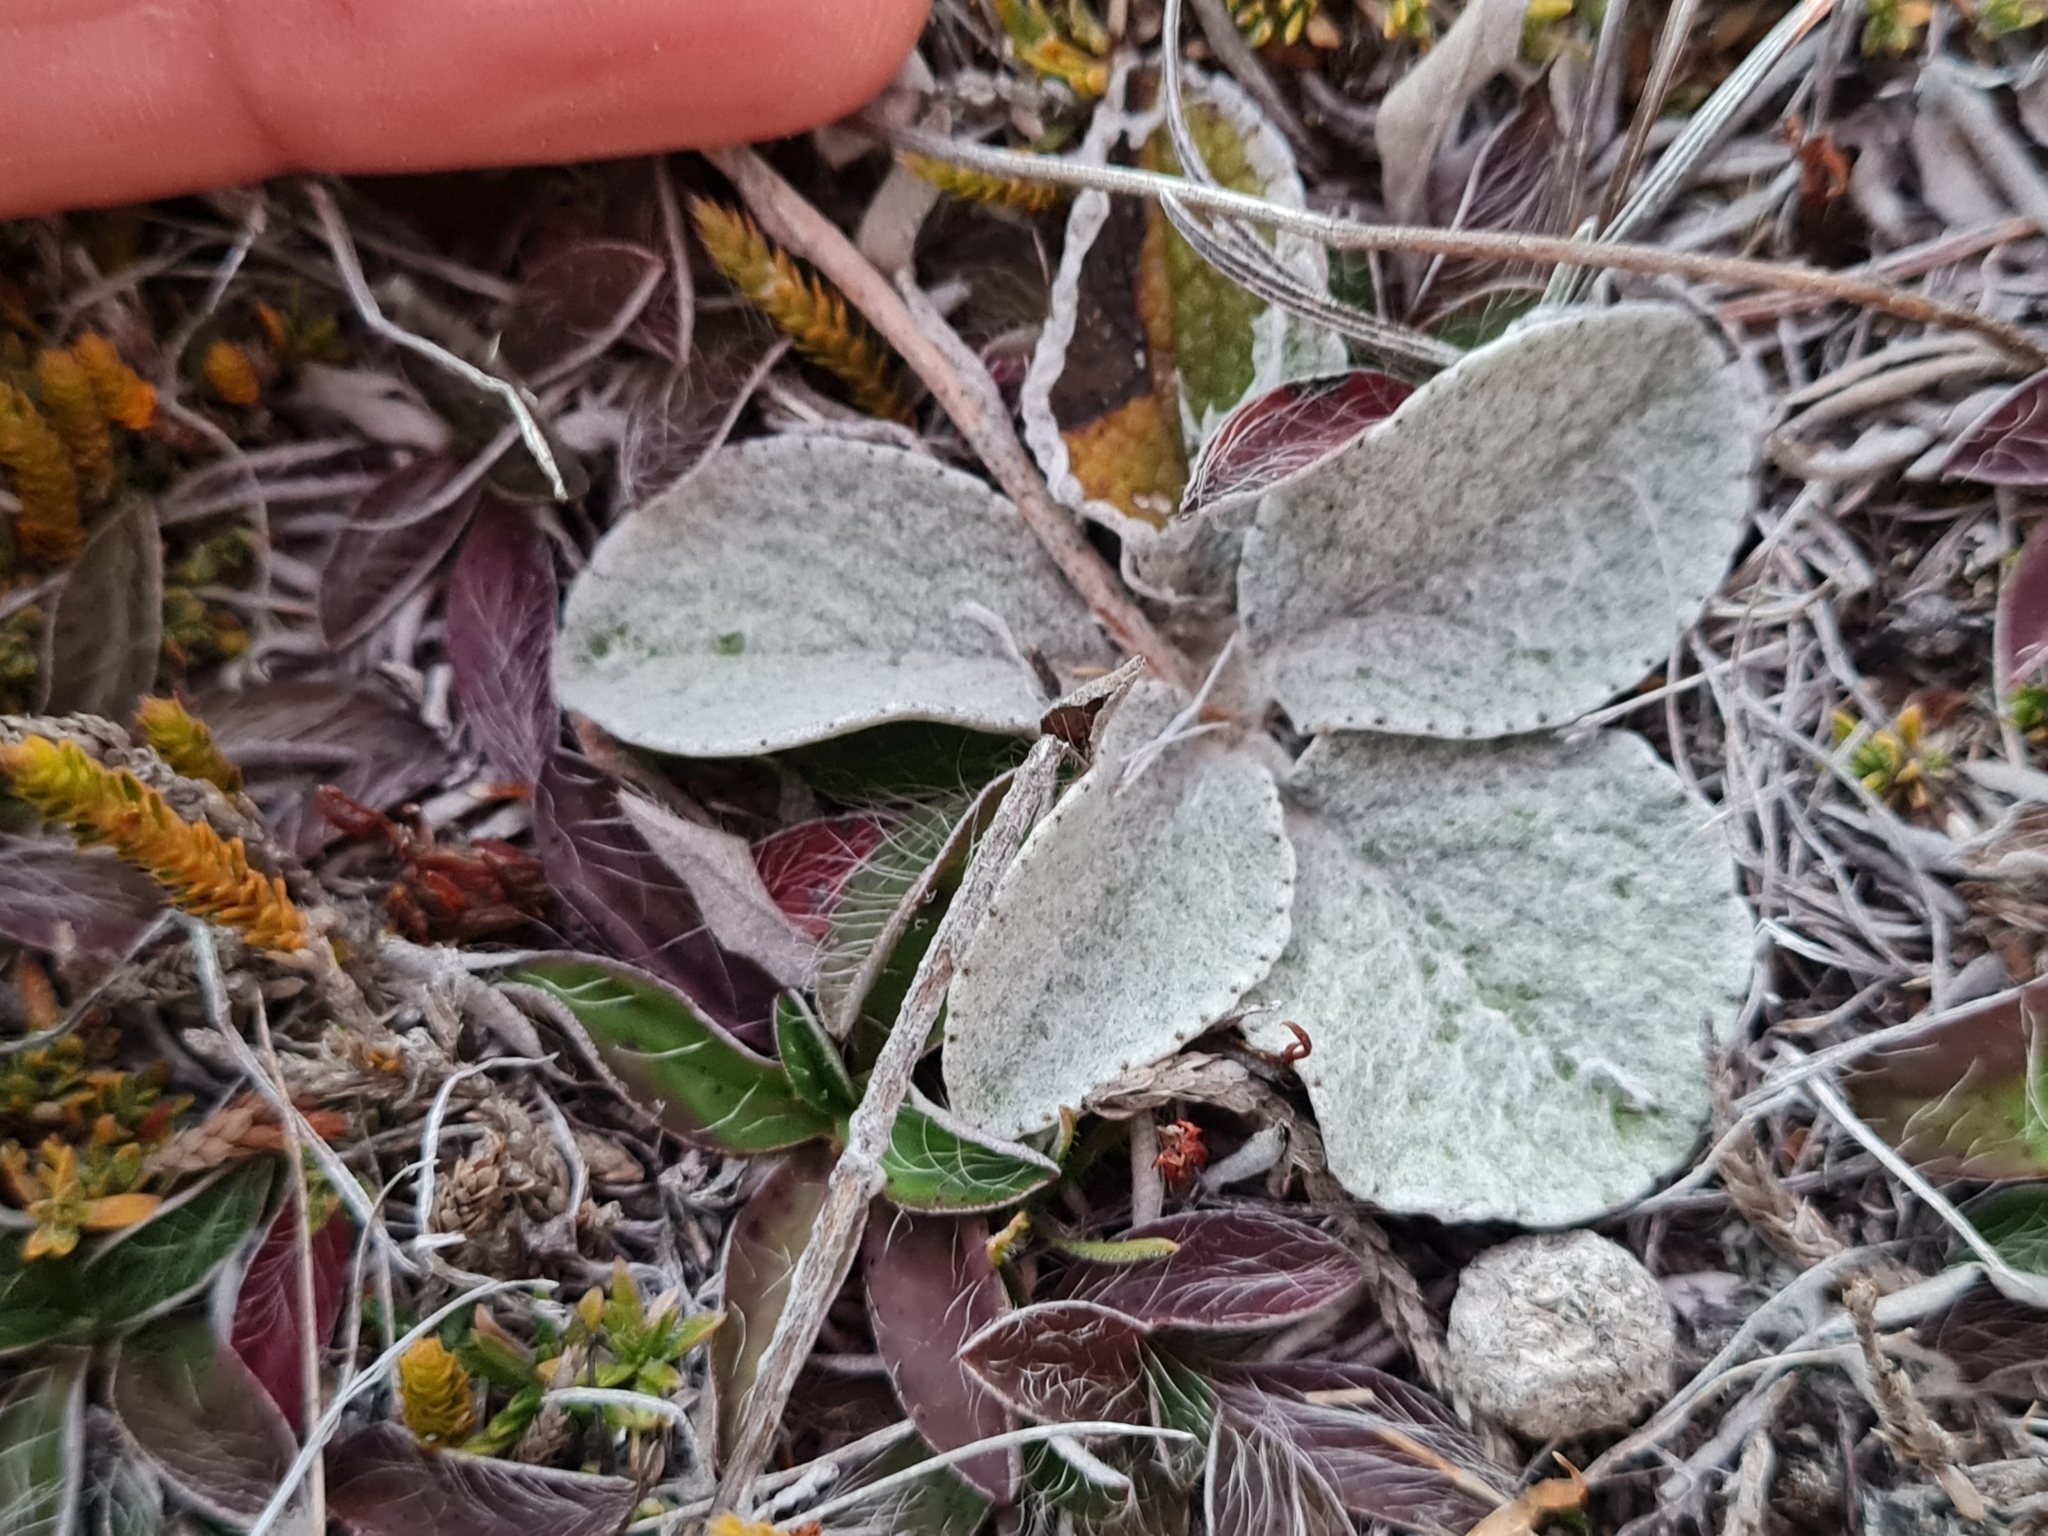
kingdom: Plantae
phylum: Tracheophyta
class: Magnoliopsida
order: Asterales
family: Asteraceae
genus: Brachyglottis
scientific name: Brachyglottis haastii
